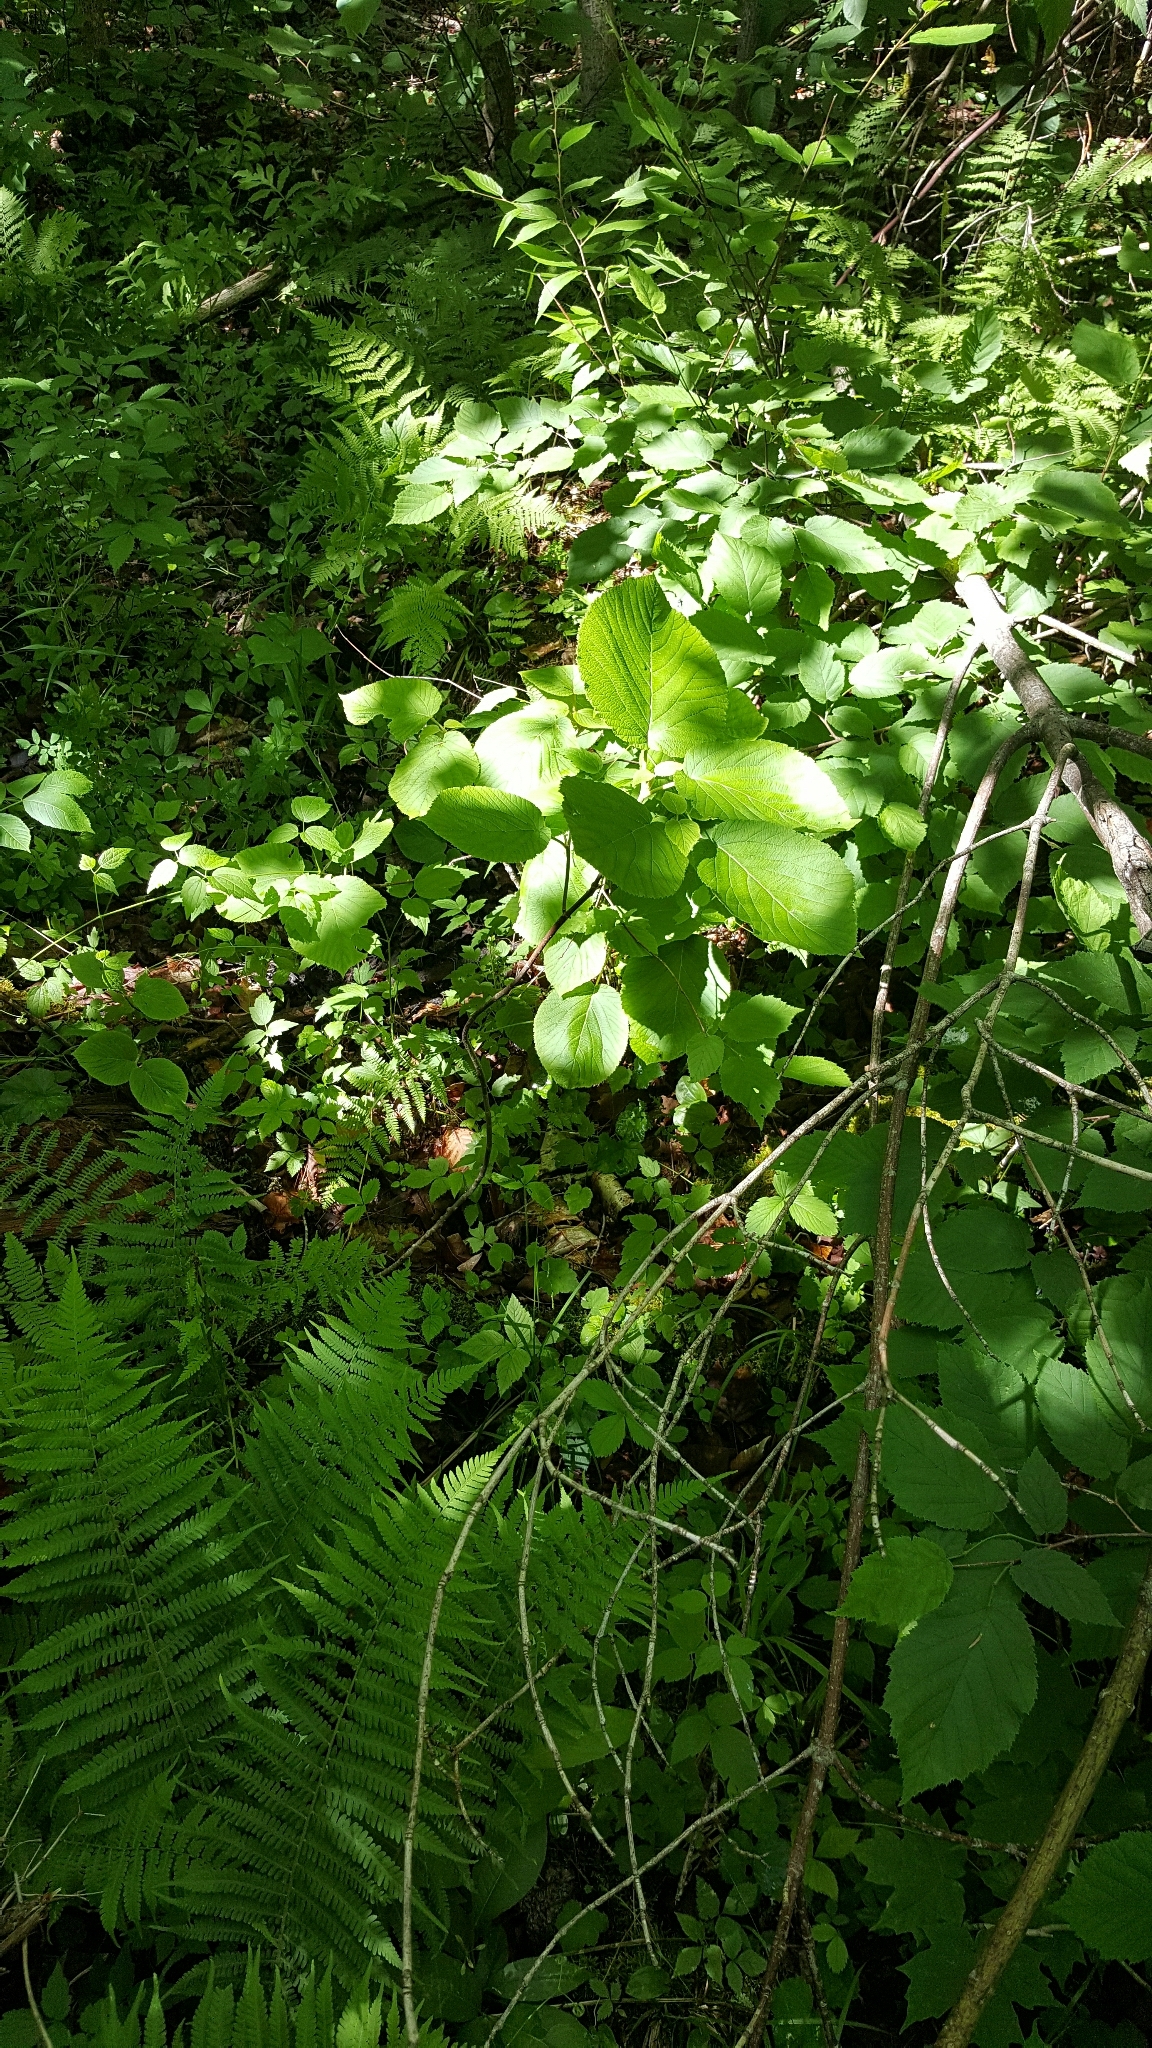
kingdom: Plantae
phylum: Tracheophyta
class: Magnoliopsida
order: Dipsacales
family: Viburnaceae
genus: Viburnum
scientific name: Viburnum lantanoides
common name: Hobblebush
